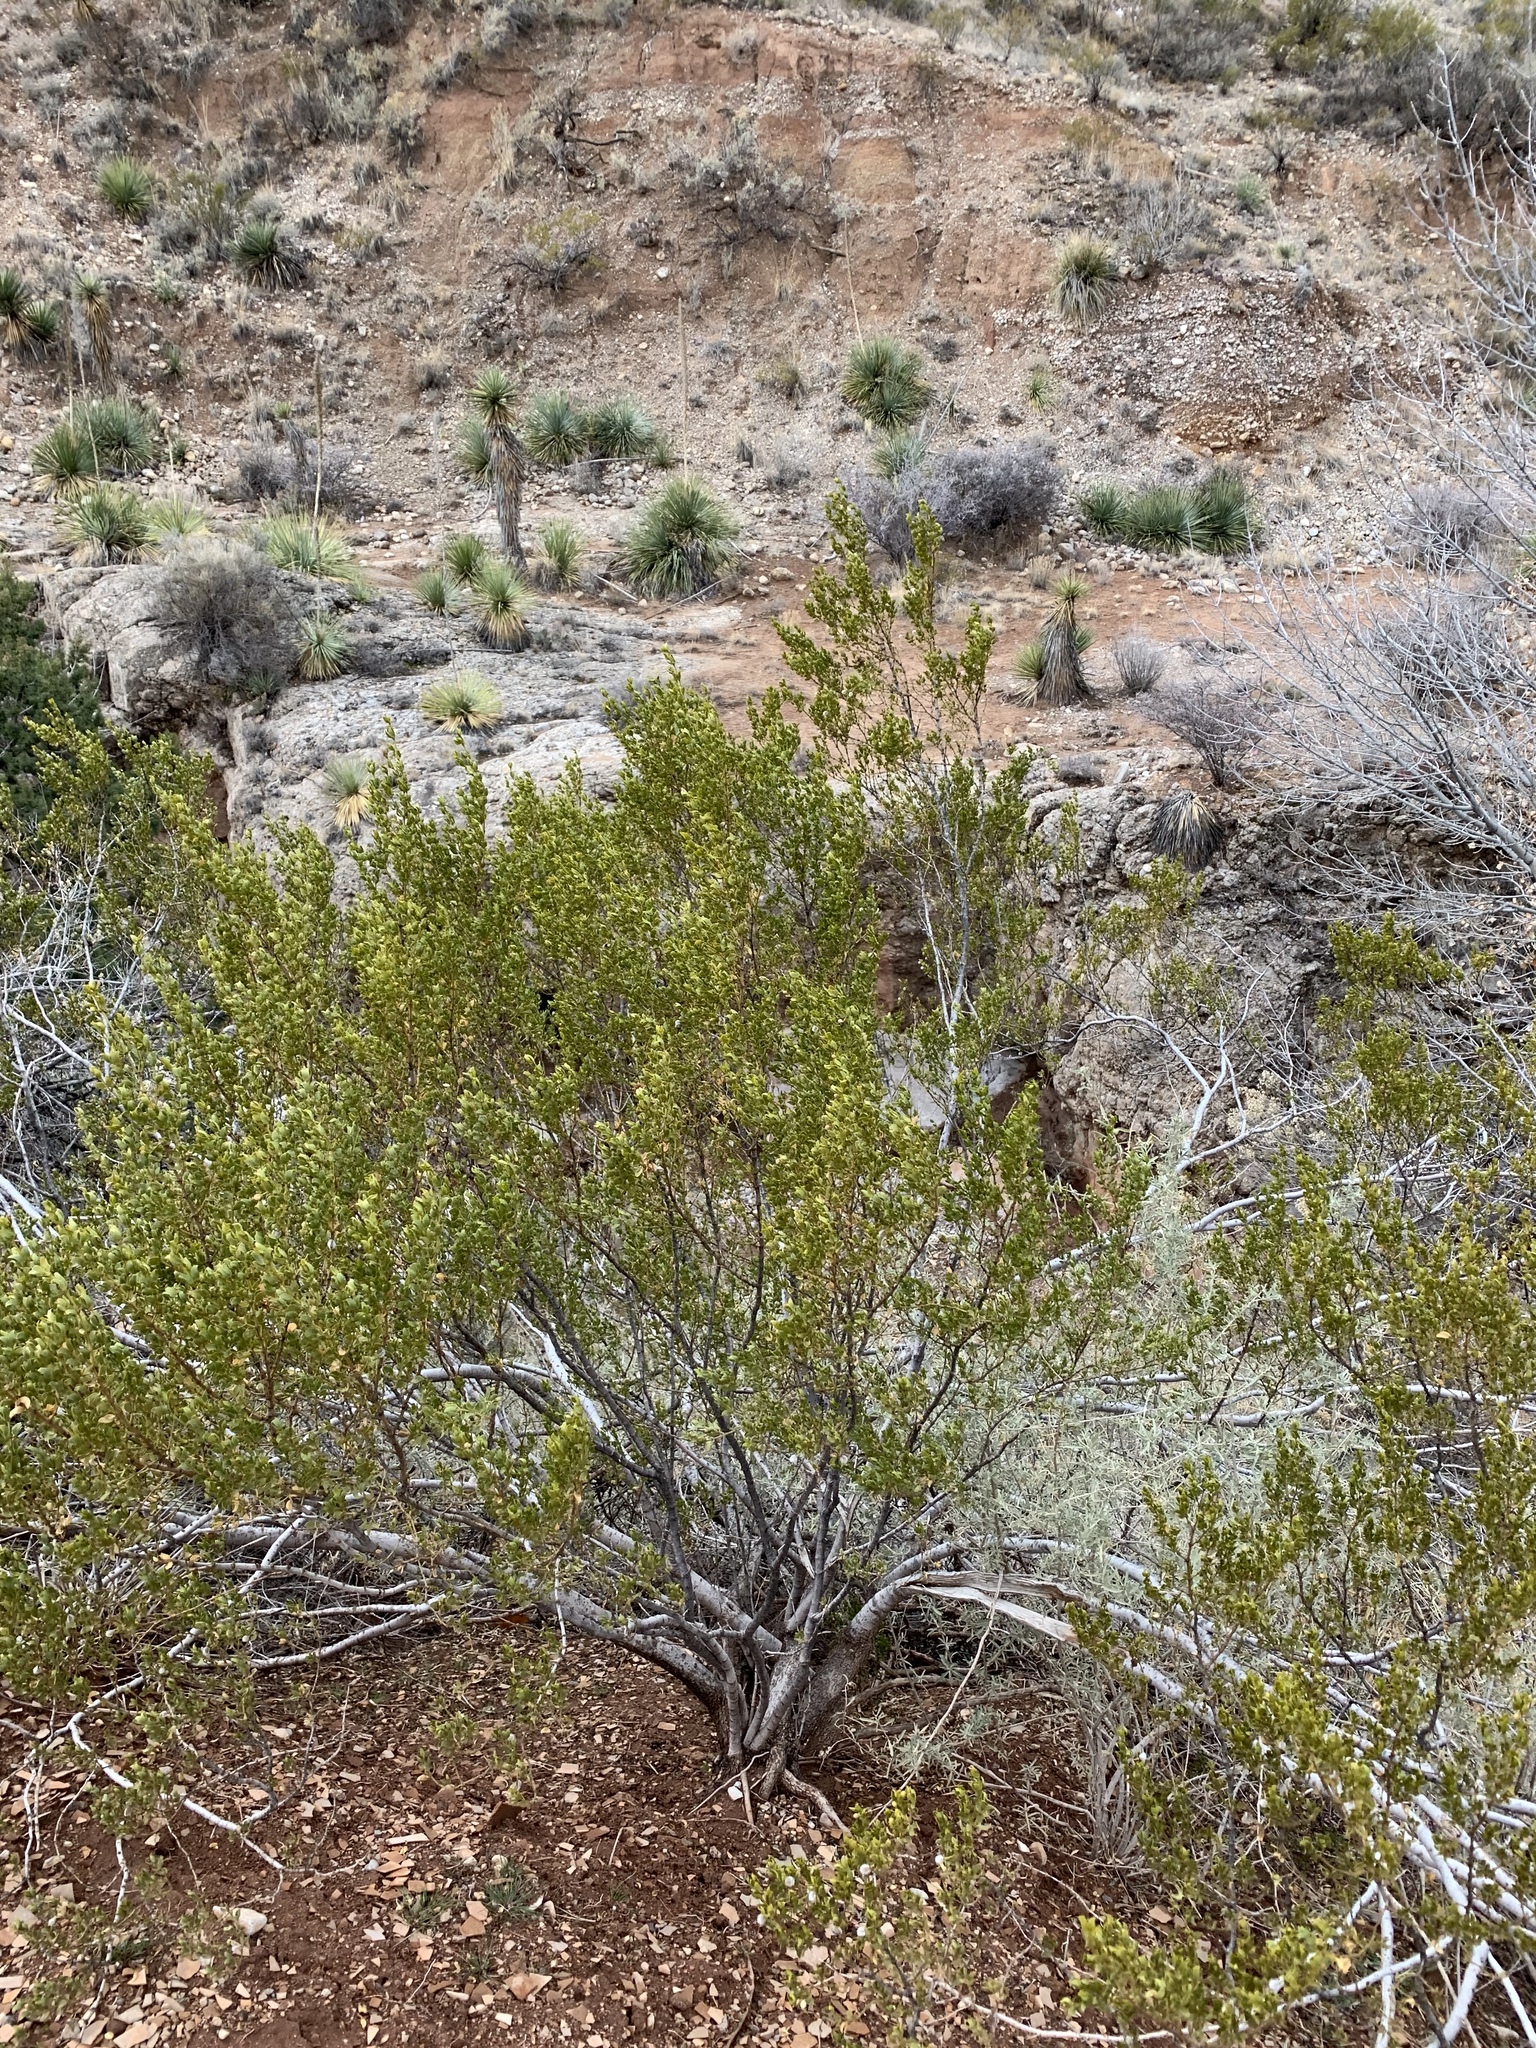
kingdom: Plantae
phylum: Tracheophyta
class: Magnoliopsida
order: Zygophyllales
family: Zygophyllaceae
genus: Larrea
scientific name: Larrea tridentata
